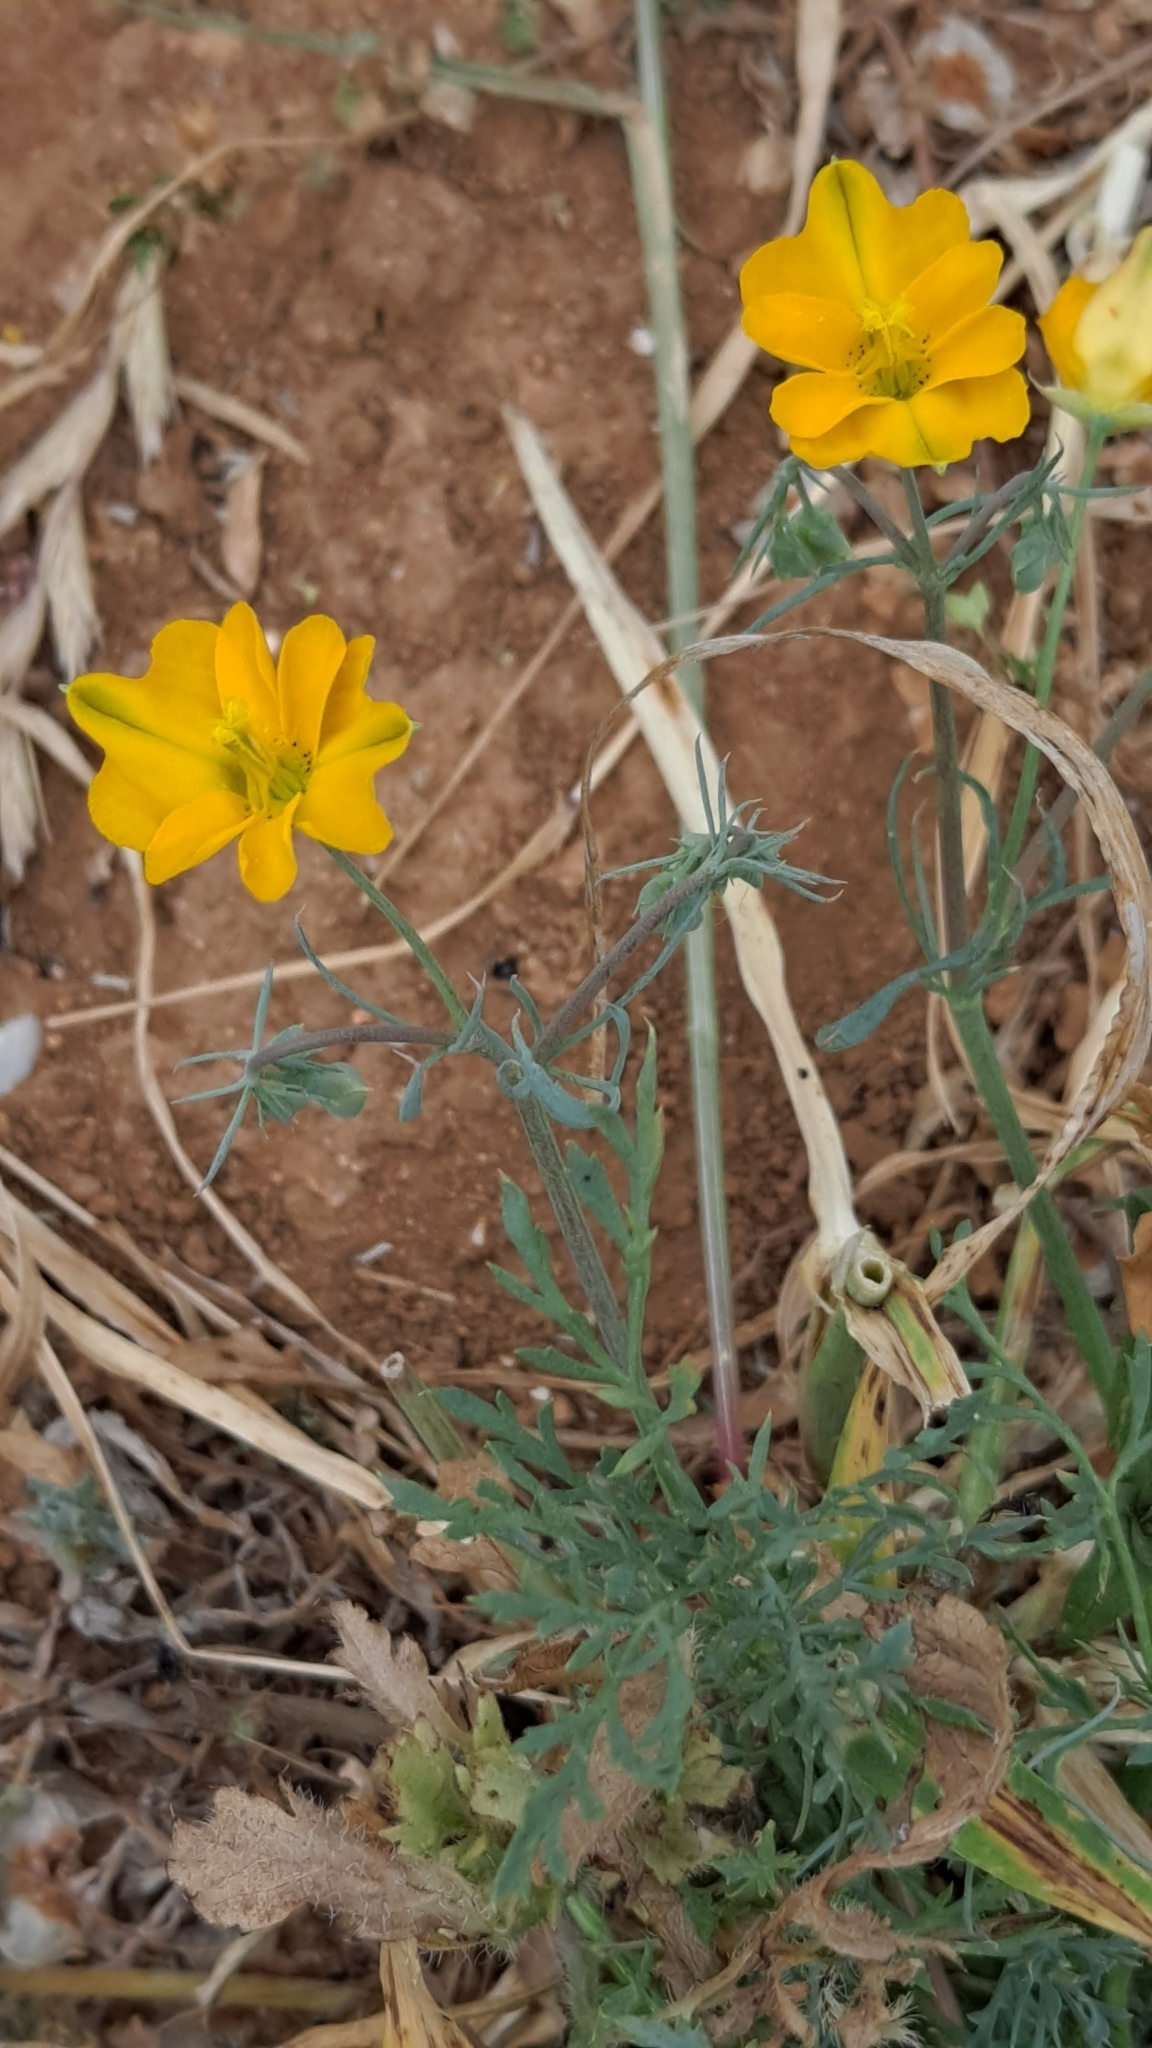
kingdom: Plantae
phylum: Tracheophyta
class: Magnoliopsida
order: Ranunculales
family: Papaveraceae
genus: Hypecoum
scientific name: Hypecoum imberbe
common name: Sicklefruit hypecoum
